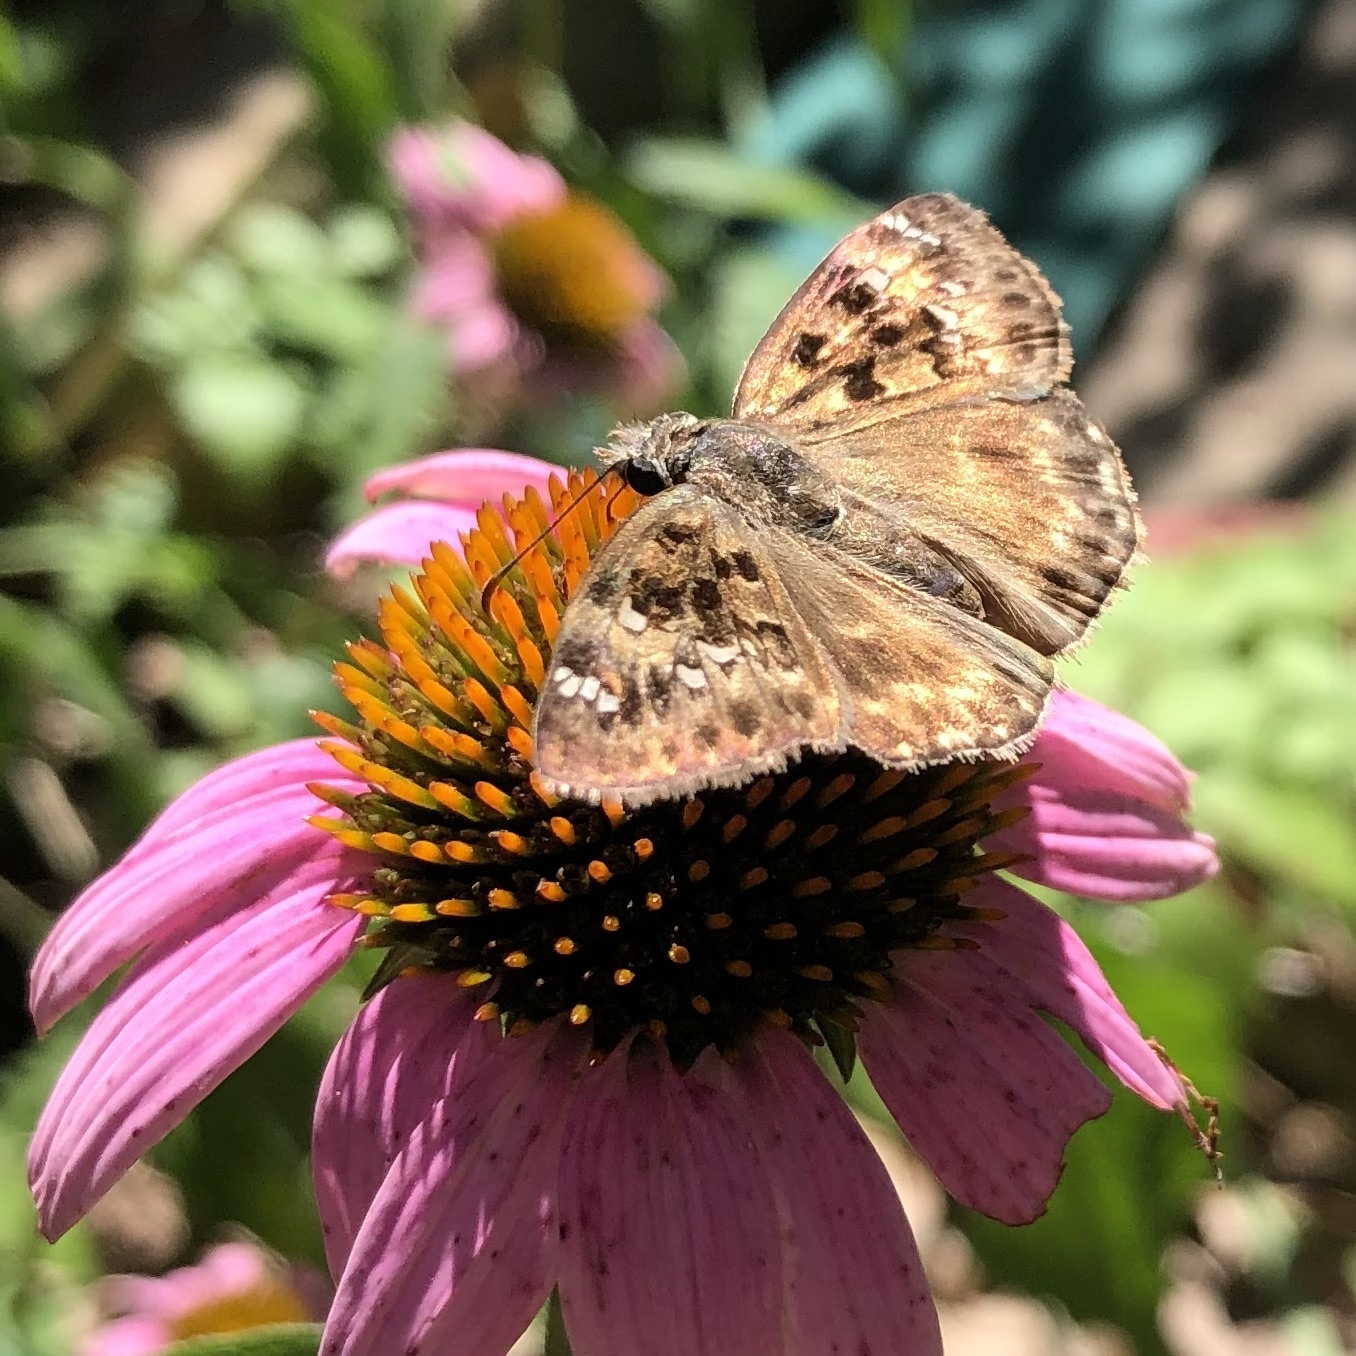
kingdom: Animalia
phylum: Arthropoda
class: Insecta
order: Lepidoptera
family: Hesperiidae
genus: Erynnis
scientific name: Erynnis horatius
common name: Horace's duskywing
